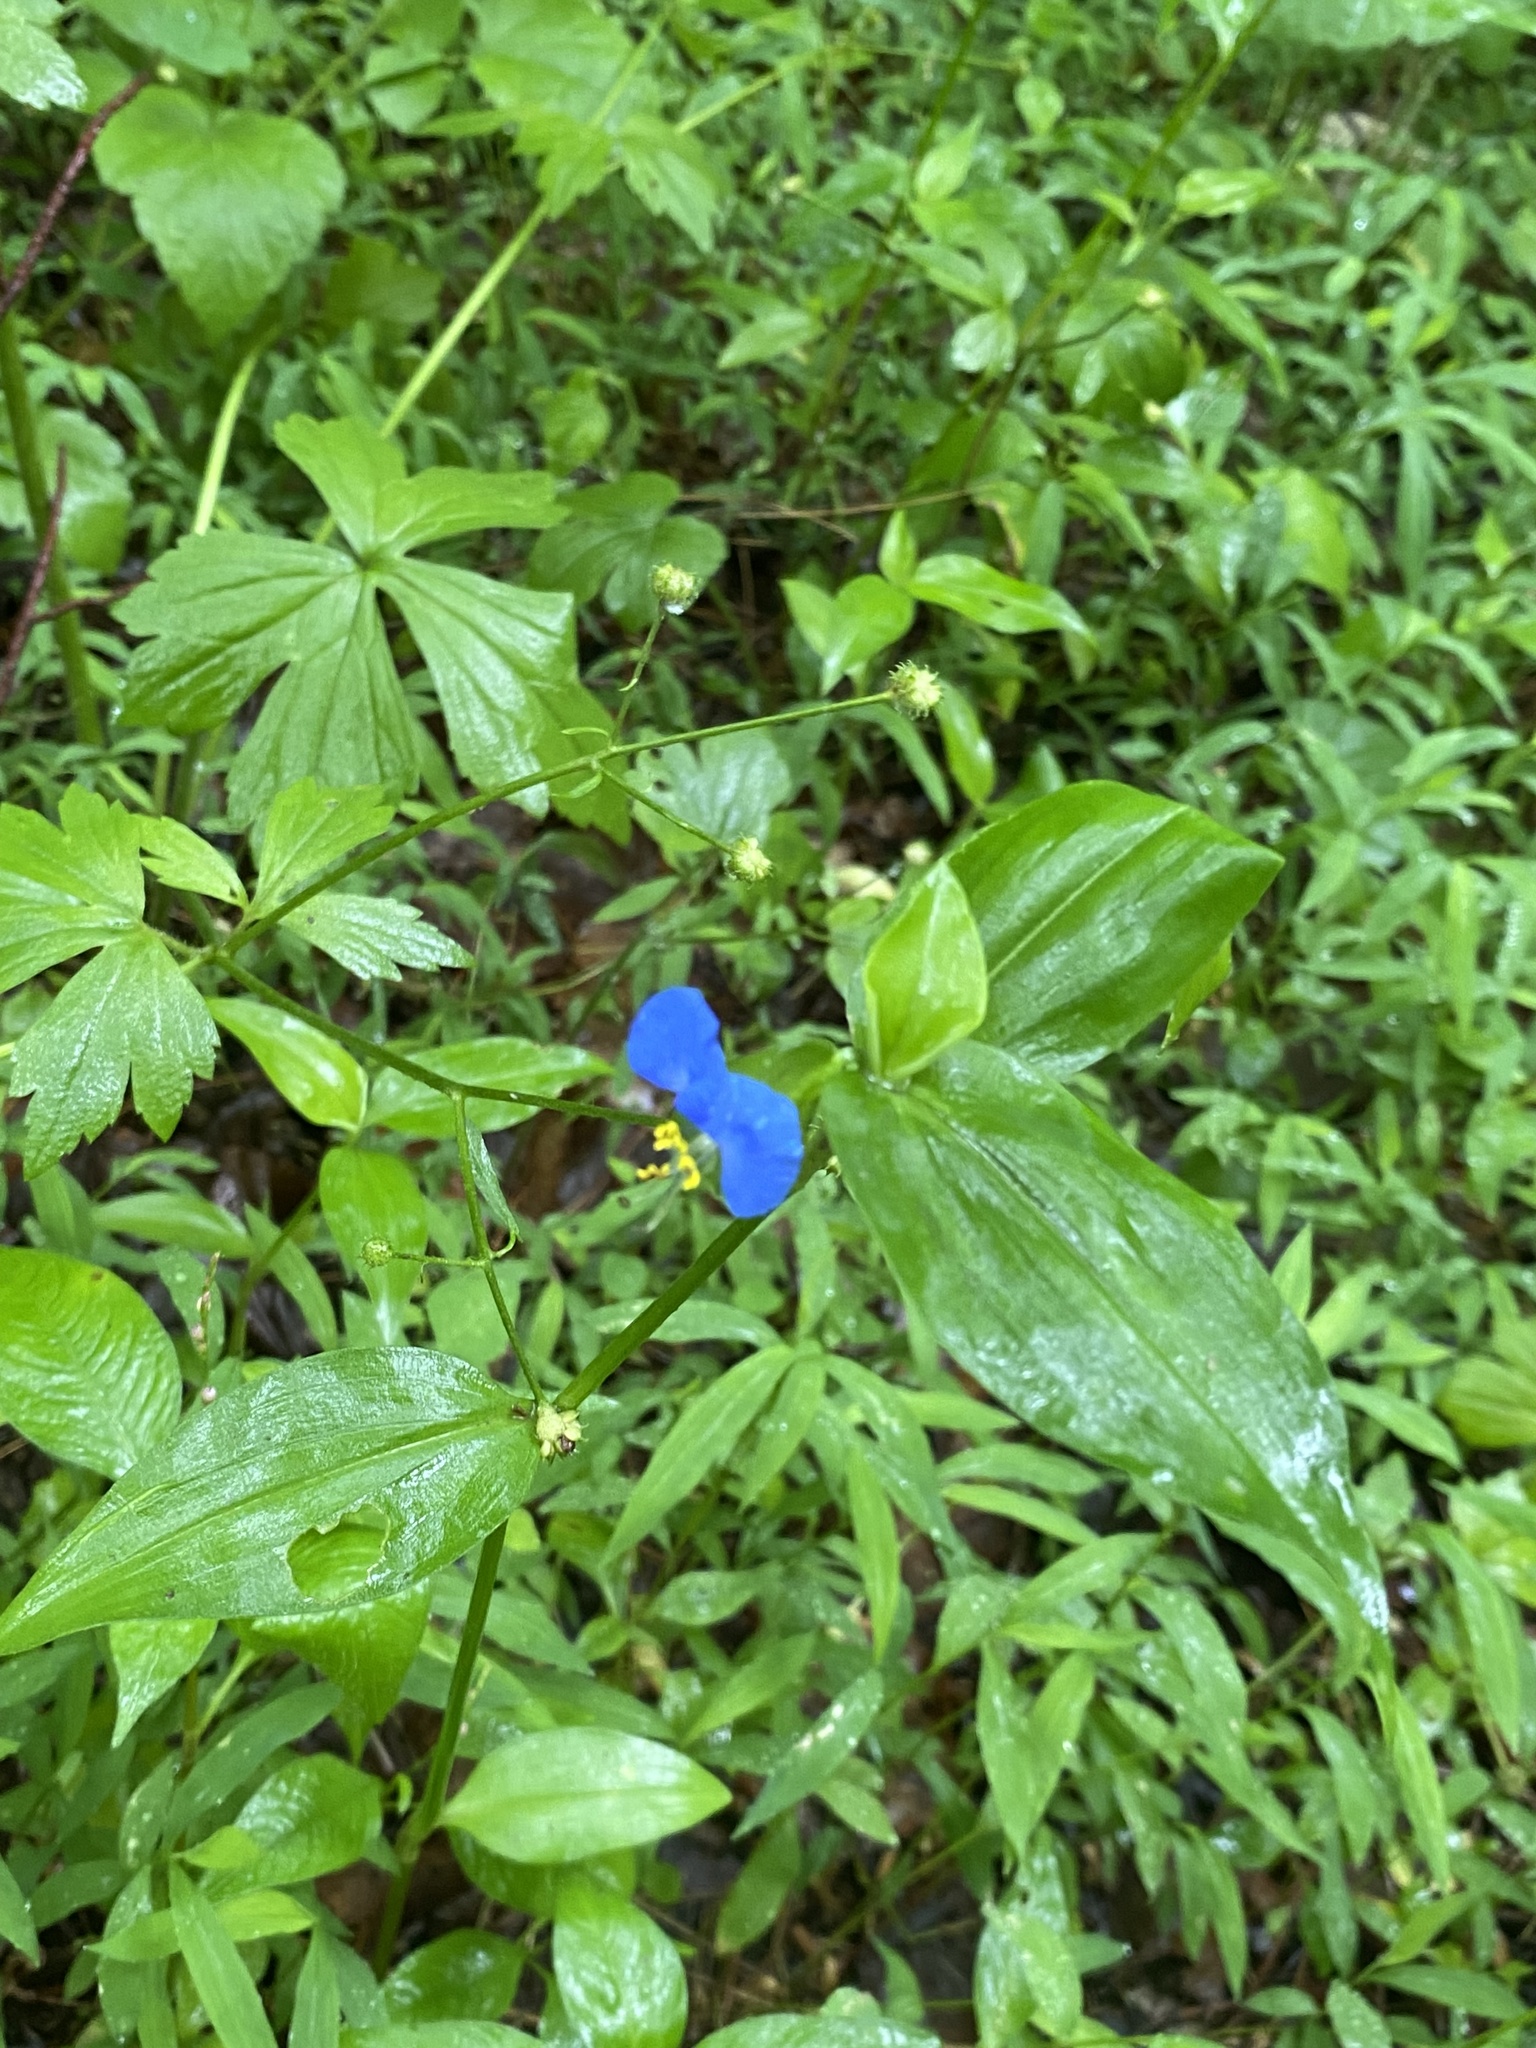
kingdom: Plantae
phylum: Tracheophyta
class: Liliopsida
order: Commelinales
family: Commelinaceae
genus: Commelina
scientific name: Commelina communis
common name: Asiatic dayflower
